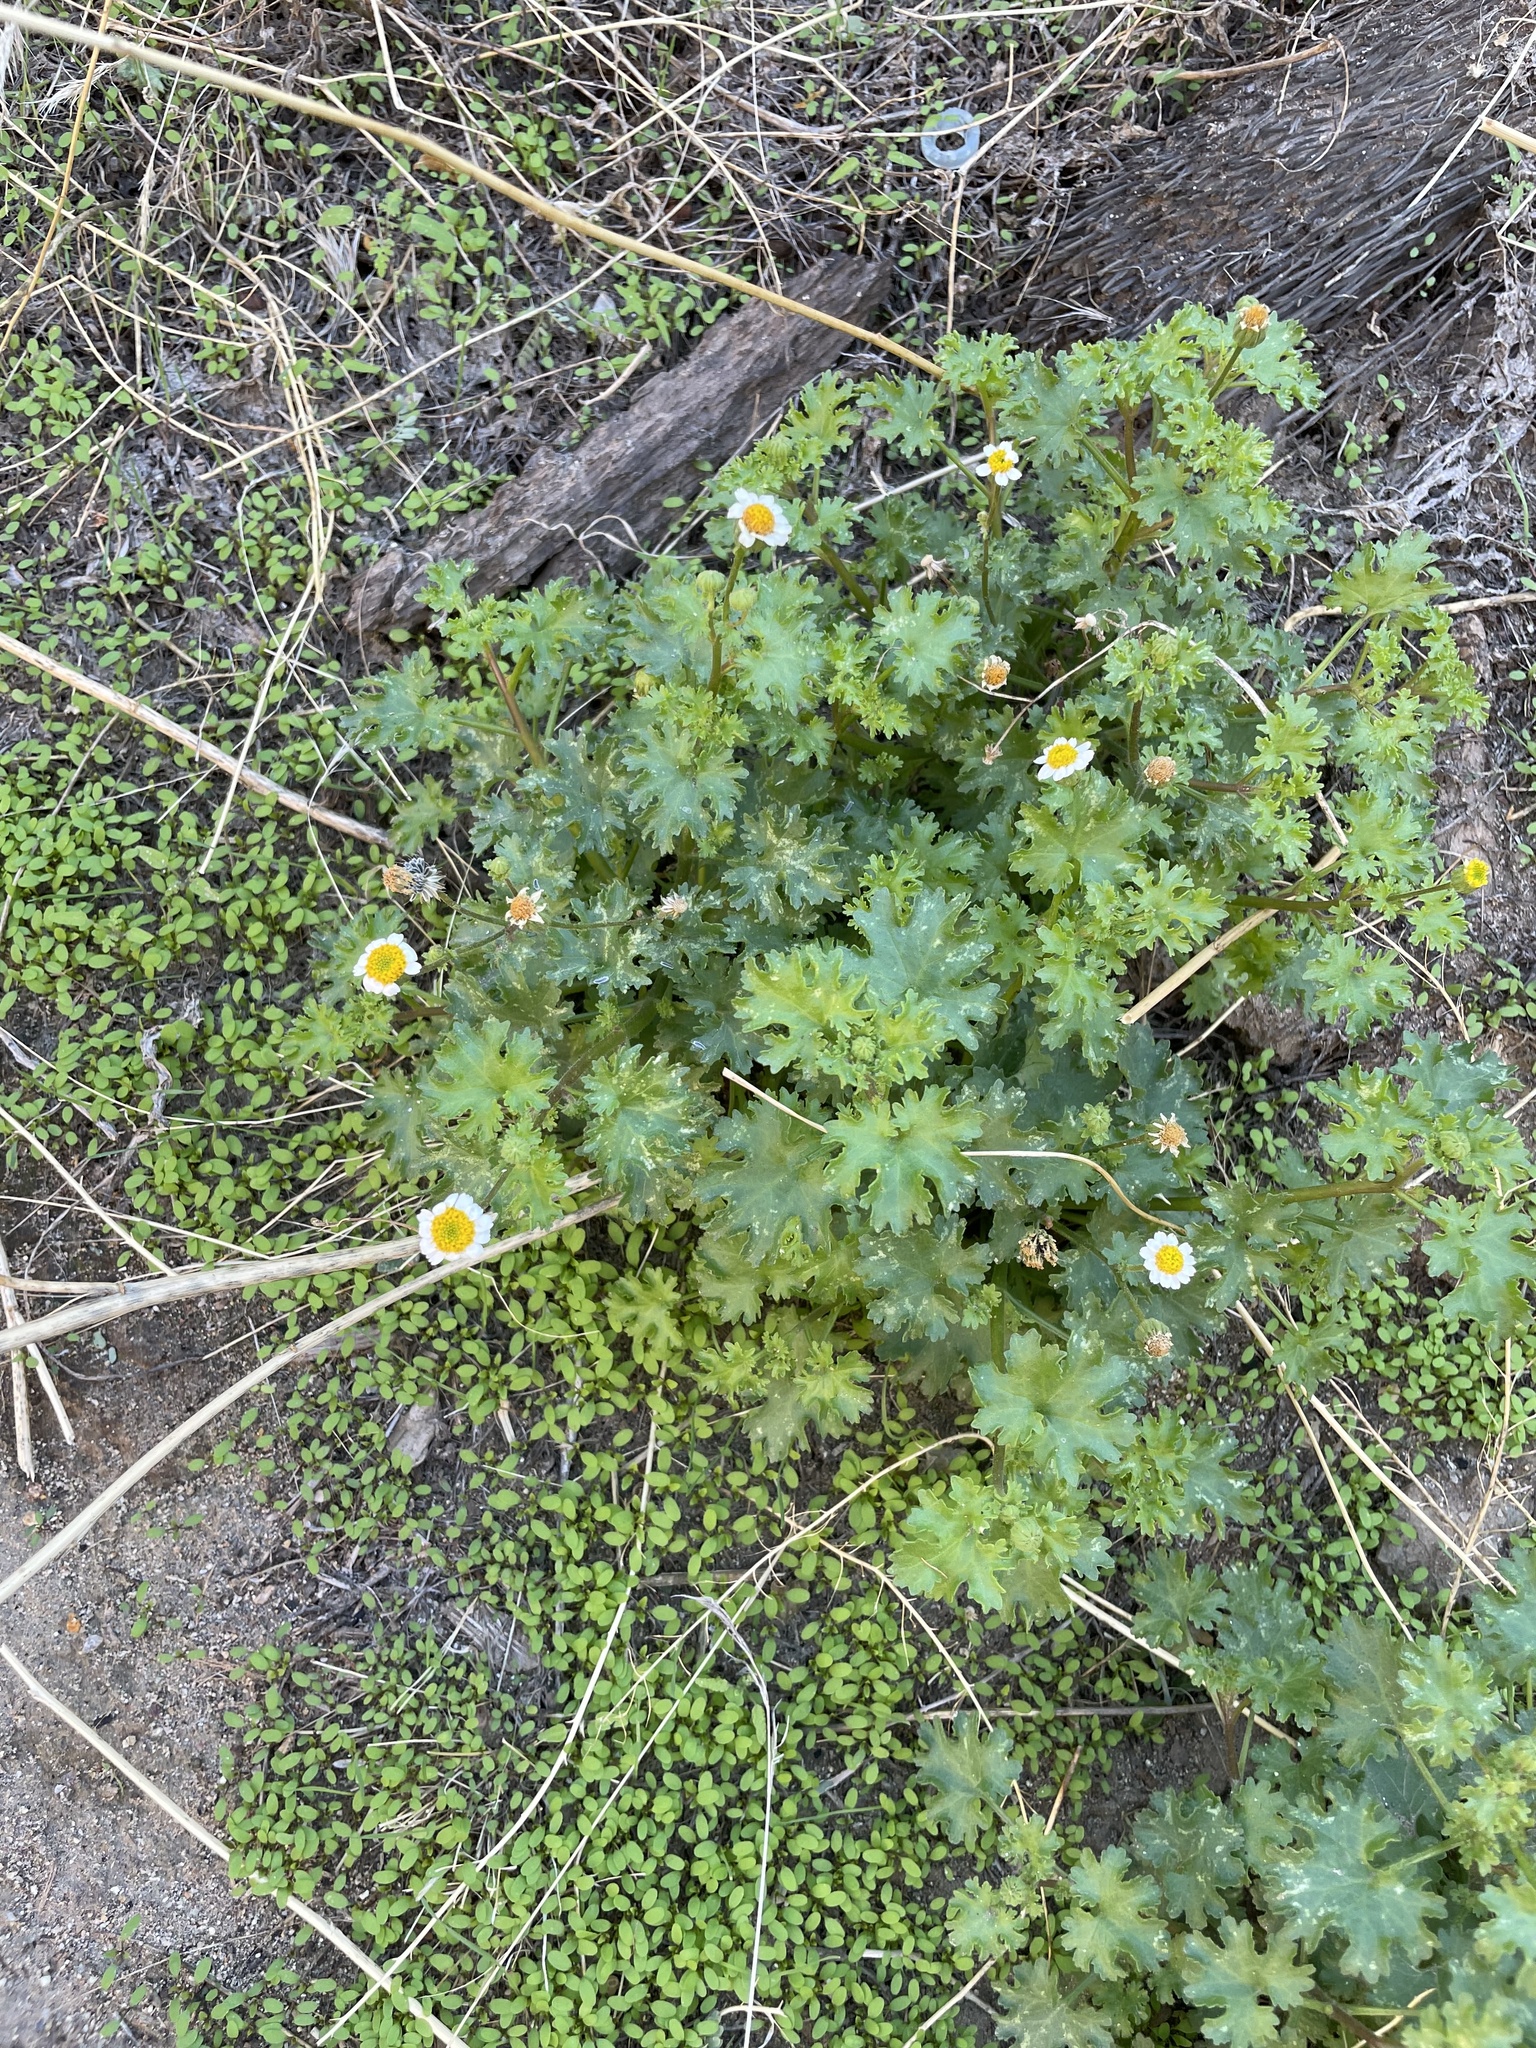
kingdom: Plantae
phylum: Tracheophyta
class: Magnoliopsida
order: Asterales
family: Asteraceae
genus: Laphamia
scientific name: Laphamia emoryi
